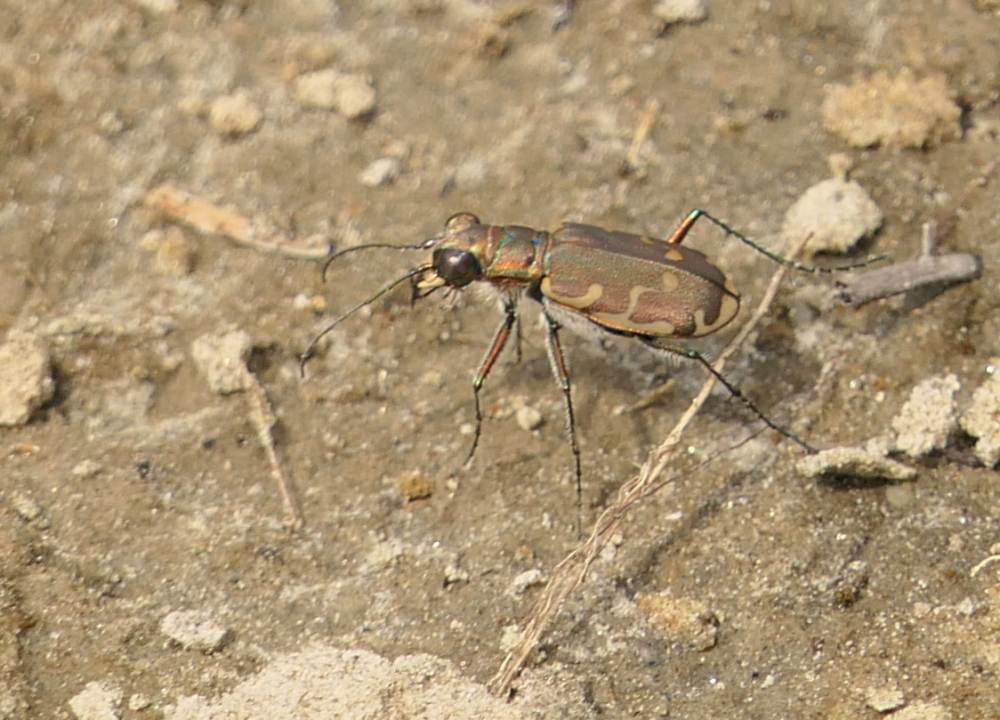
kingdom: Animalia
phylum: Arthropoda
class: Insecta
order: Coleoptera
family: Carabidae
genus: Cicindela
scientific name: Cicindela repanda
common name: Bronzed tiger beetle
